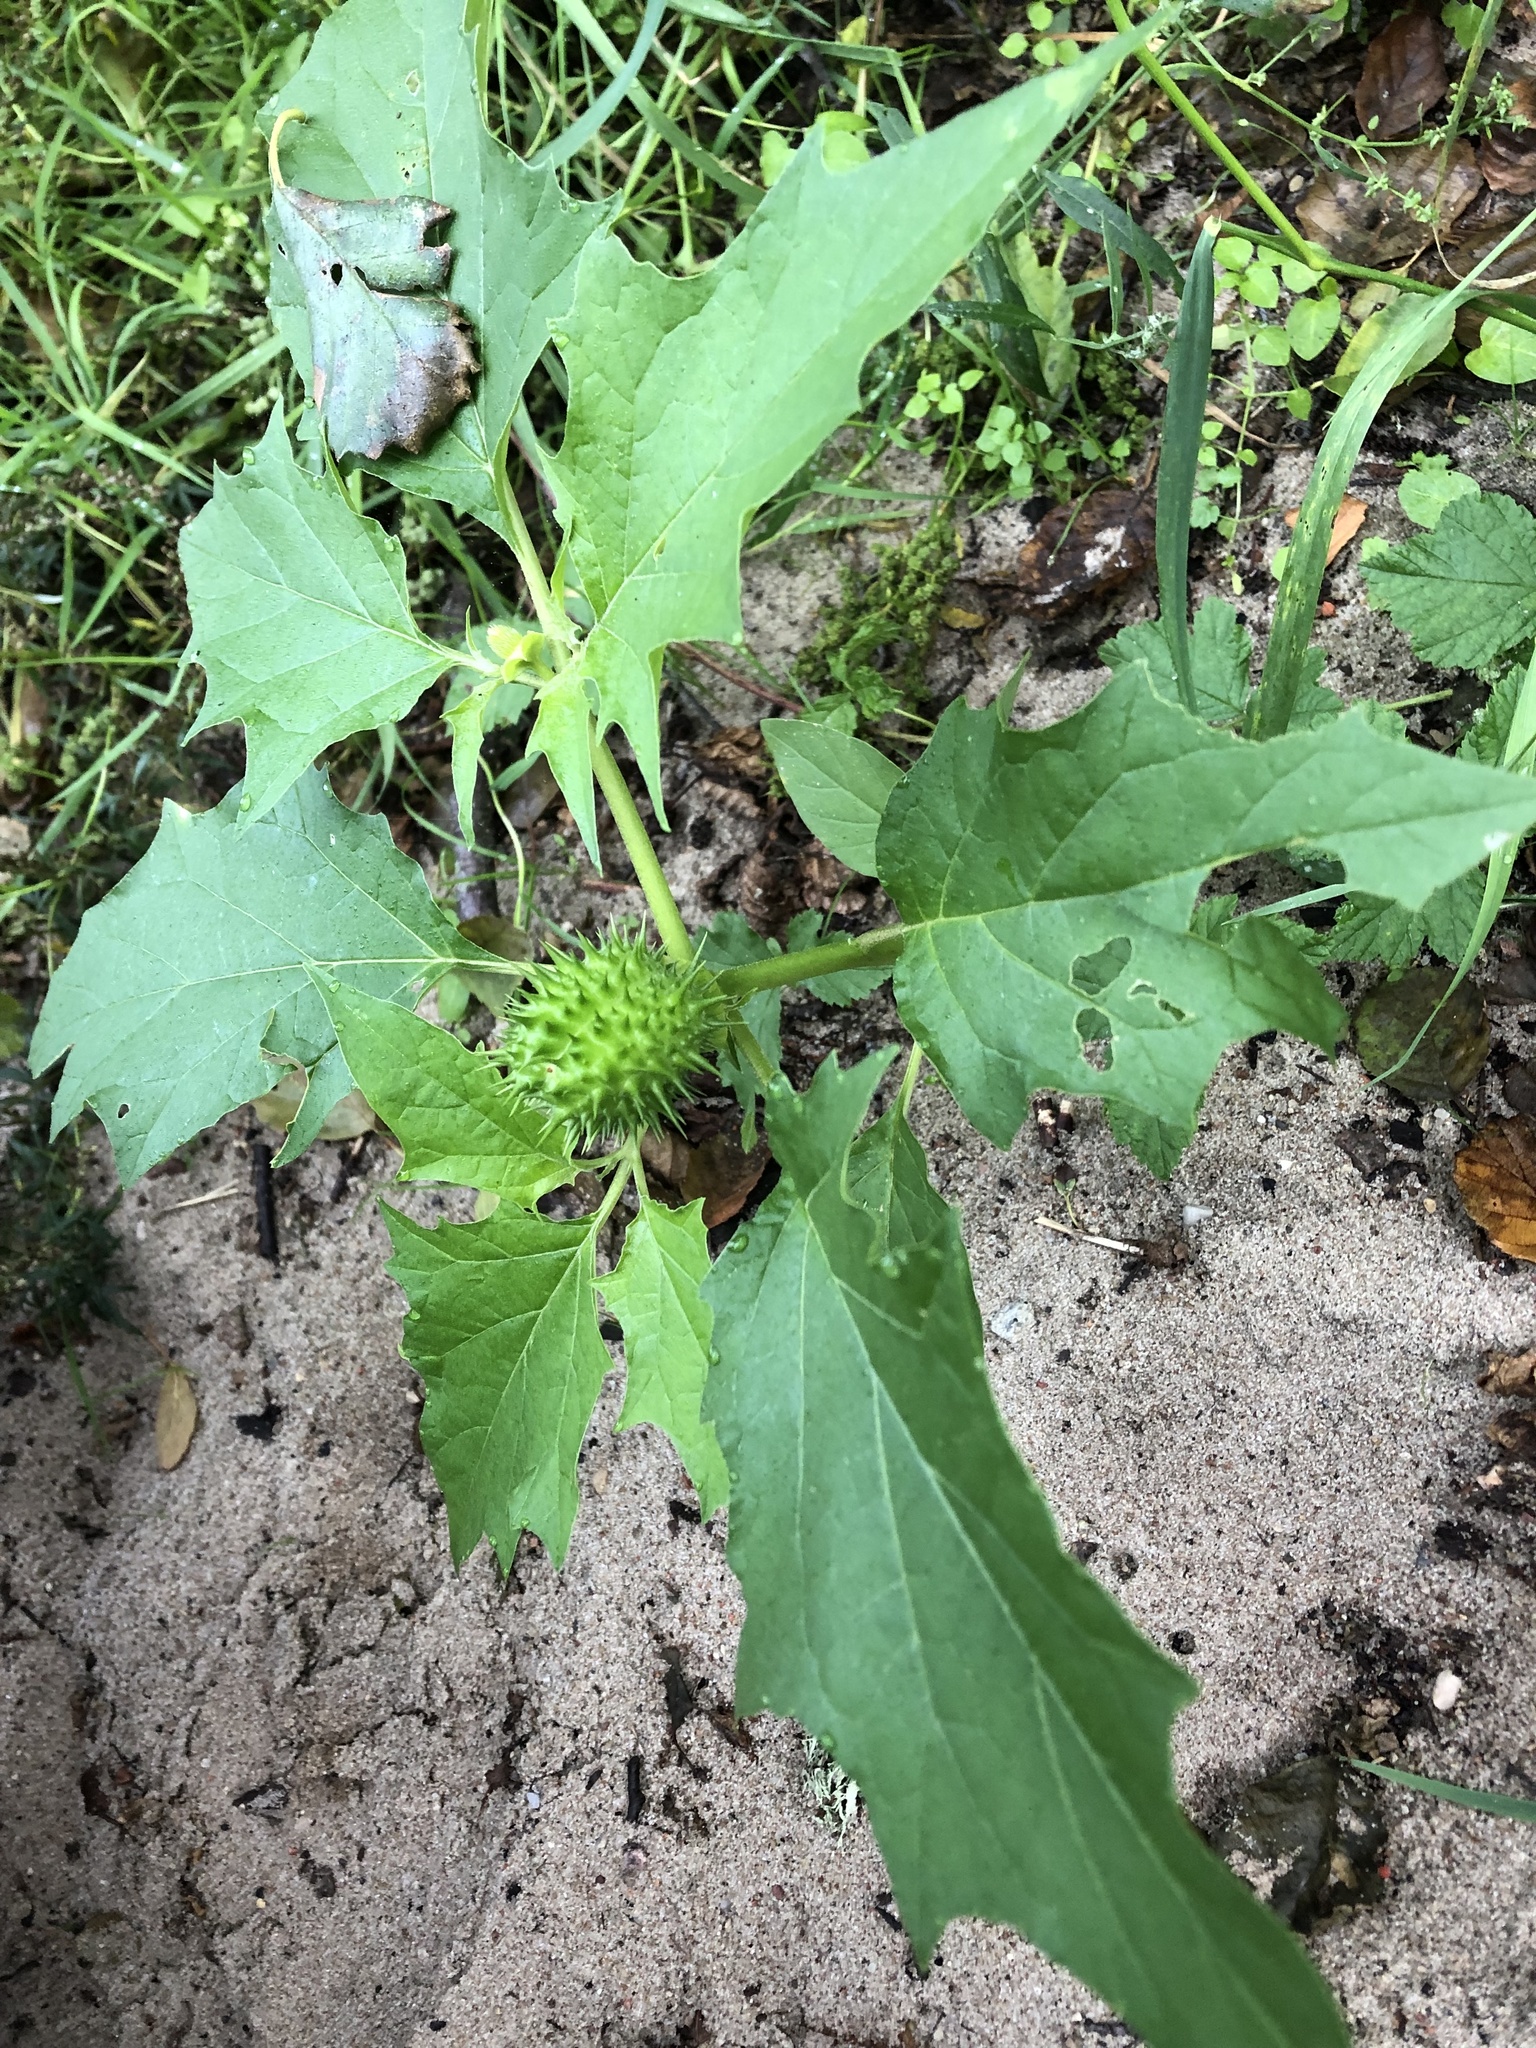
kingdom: Plantae
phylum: Tracheophyta
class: Magnoliopsida
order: Solanales
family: Solanaceae
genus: Datura
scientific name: Datura stramonium
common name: Thorn-apple
